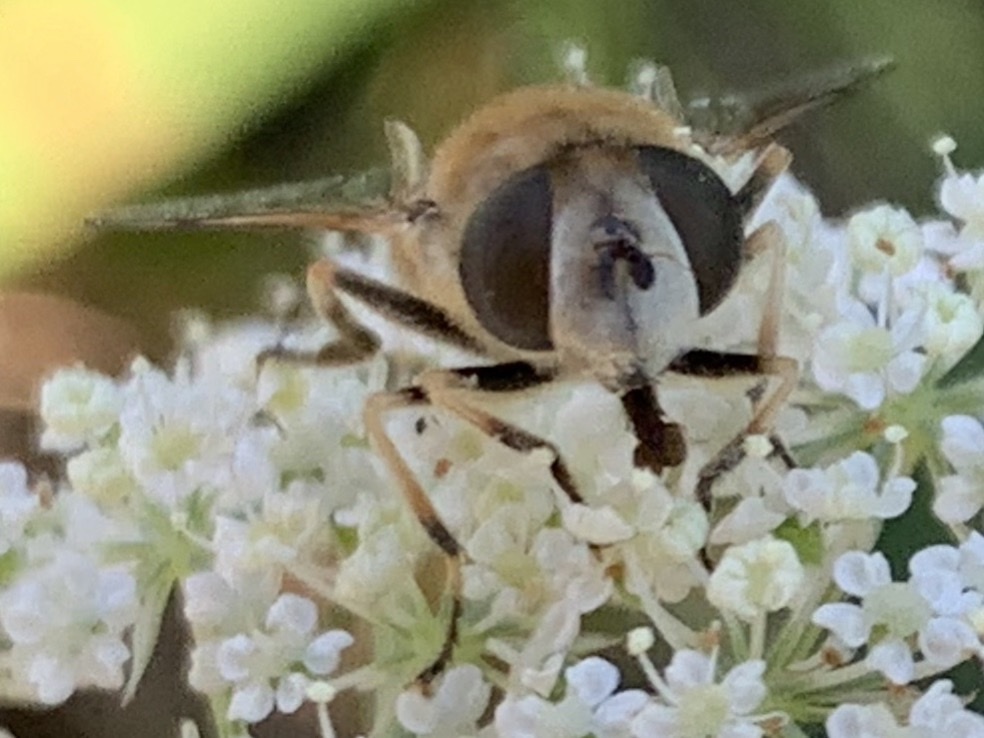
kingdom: Animalia
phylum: Arthropoda
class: Insecta
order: Diptera
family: Syrphidae
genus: Eristalis
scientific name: Eristalis arbustorum
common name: Hover fly
